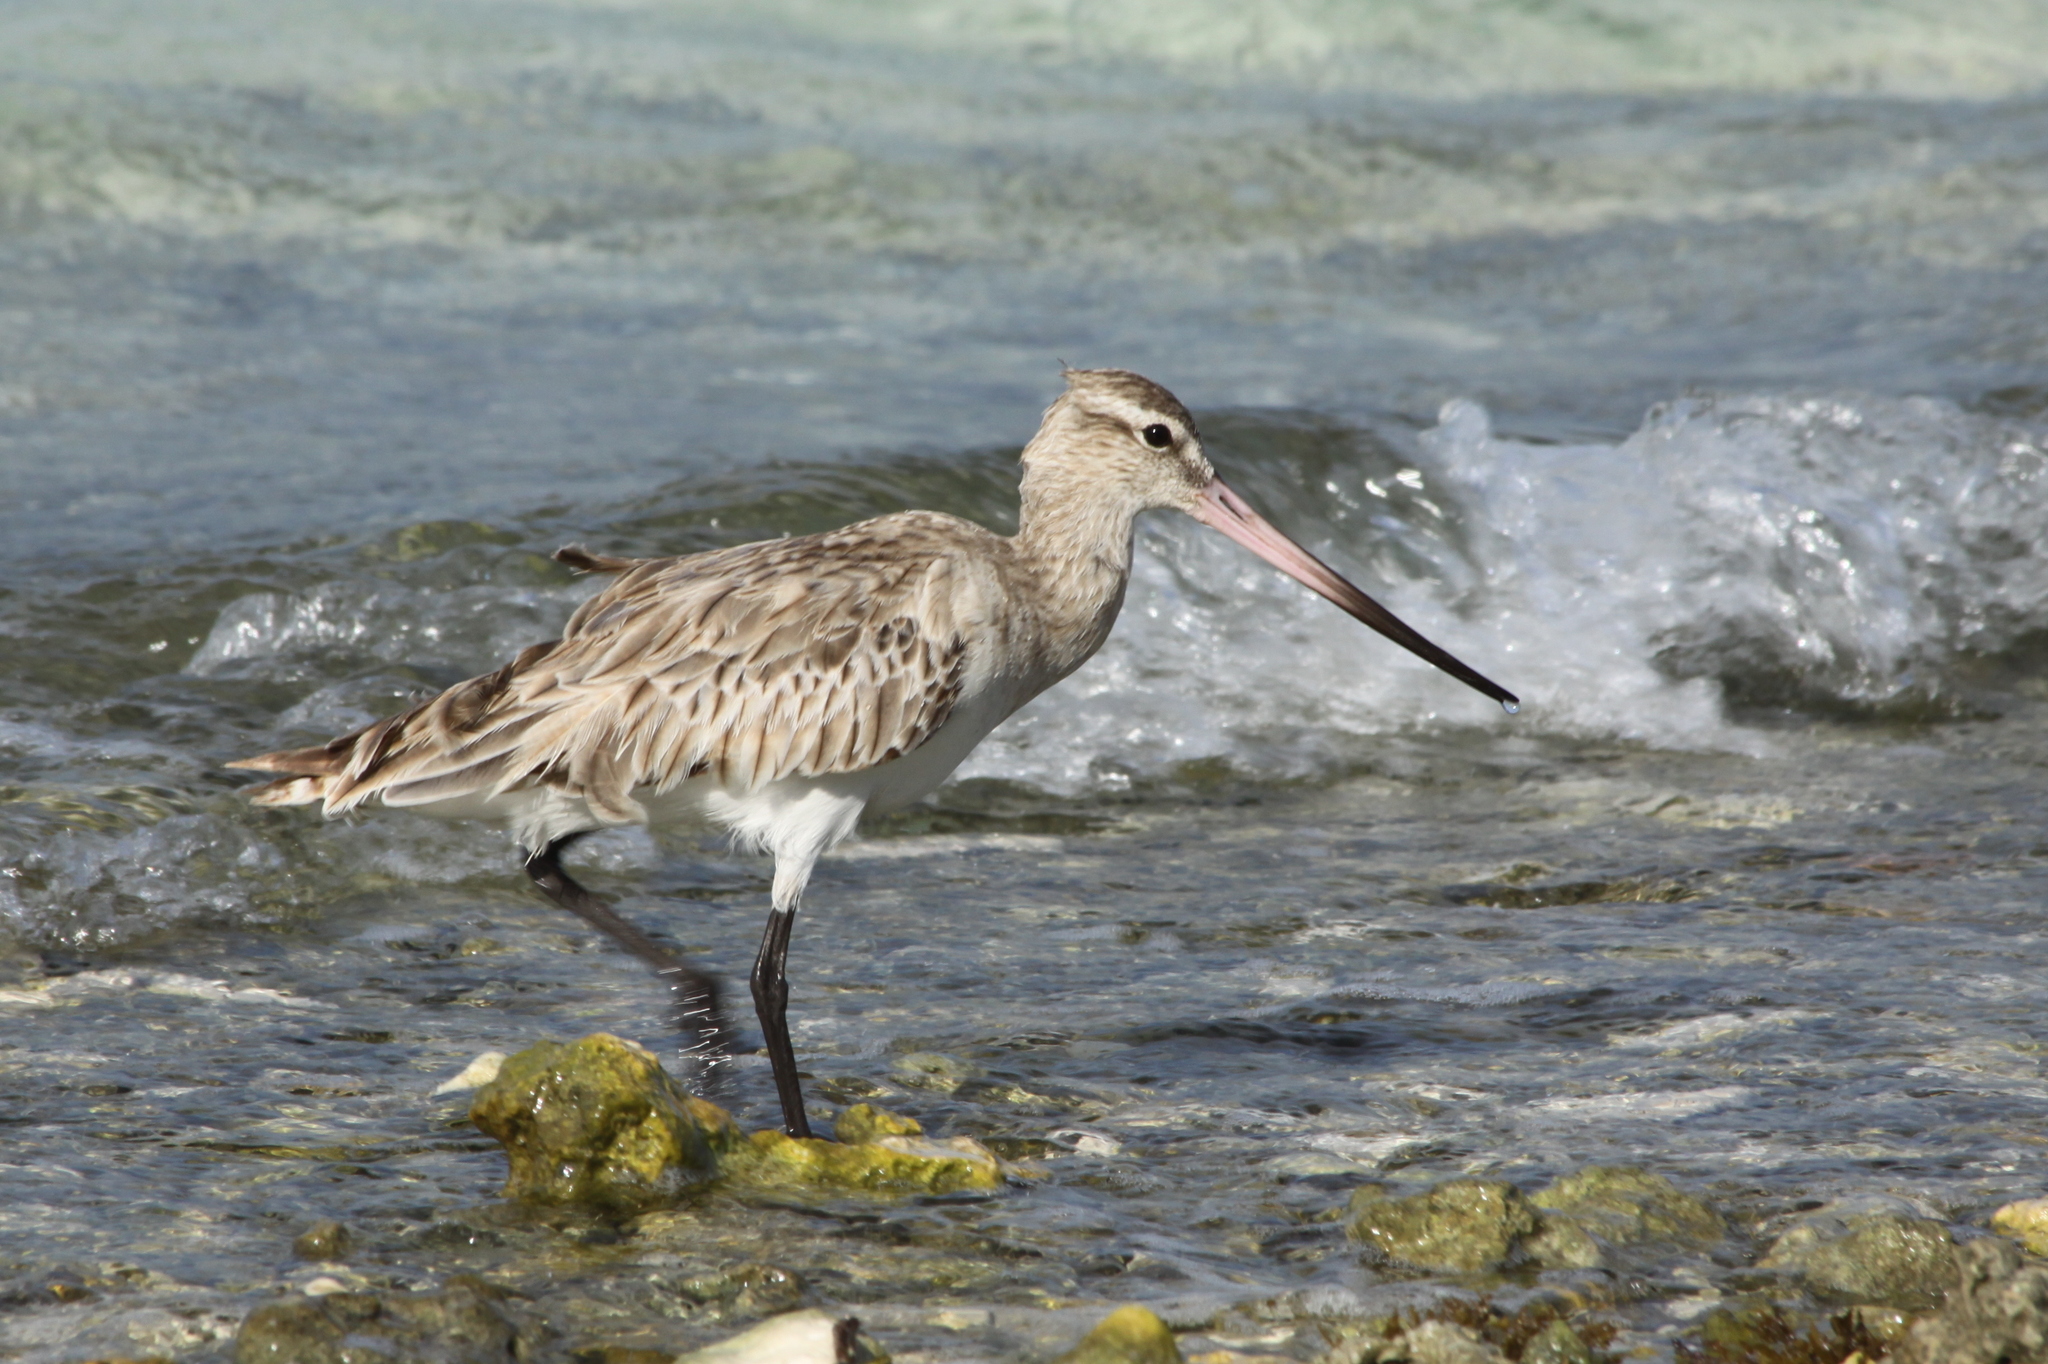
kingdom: Animalia
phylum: Chordata
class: Aves
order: Charadriiformes
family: Scolopacidae
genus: Limosa
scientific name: Limosa lapponica
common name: Bar-tailed godwit
